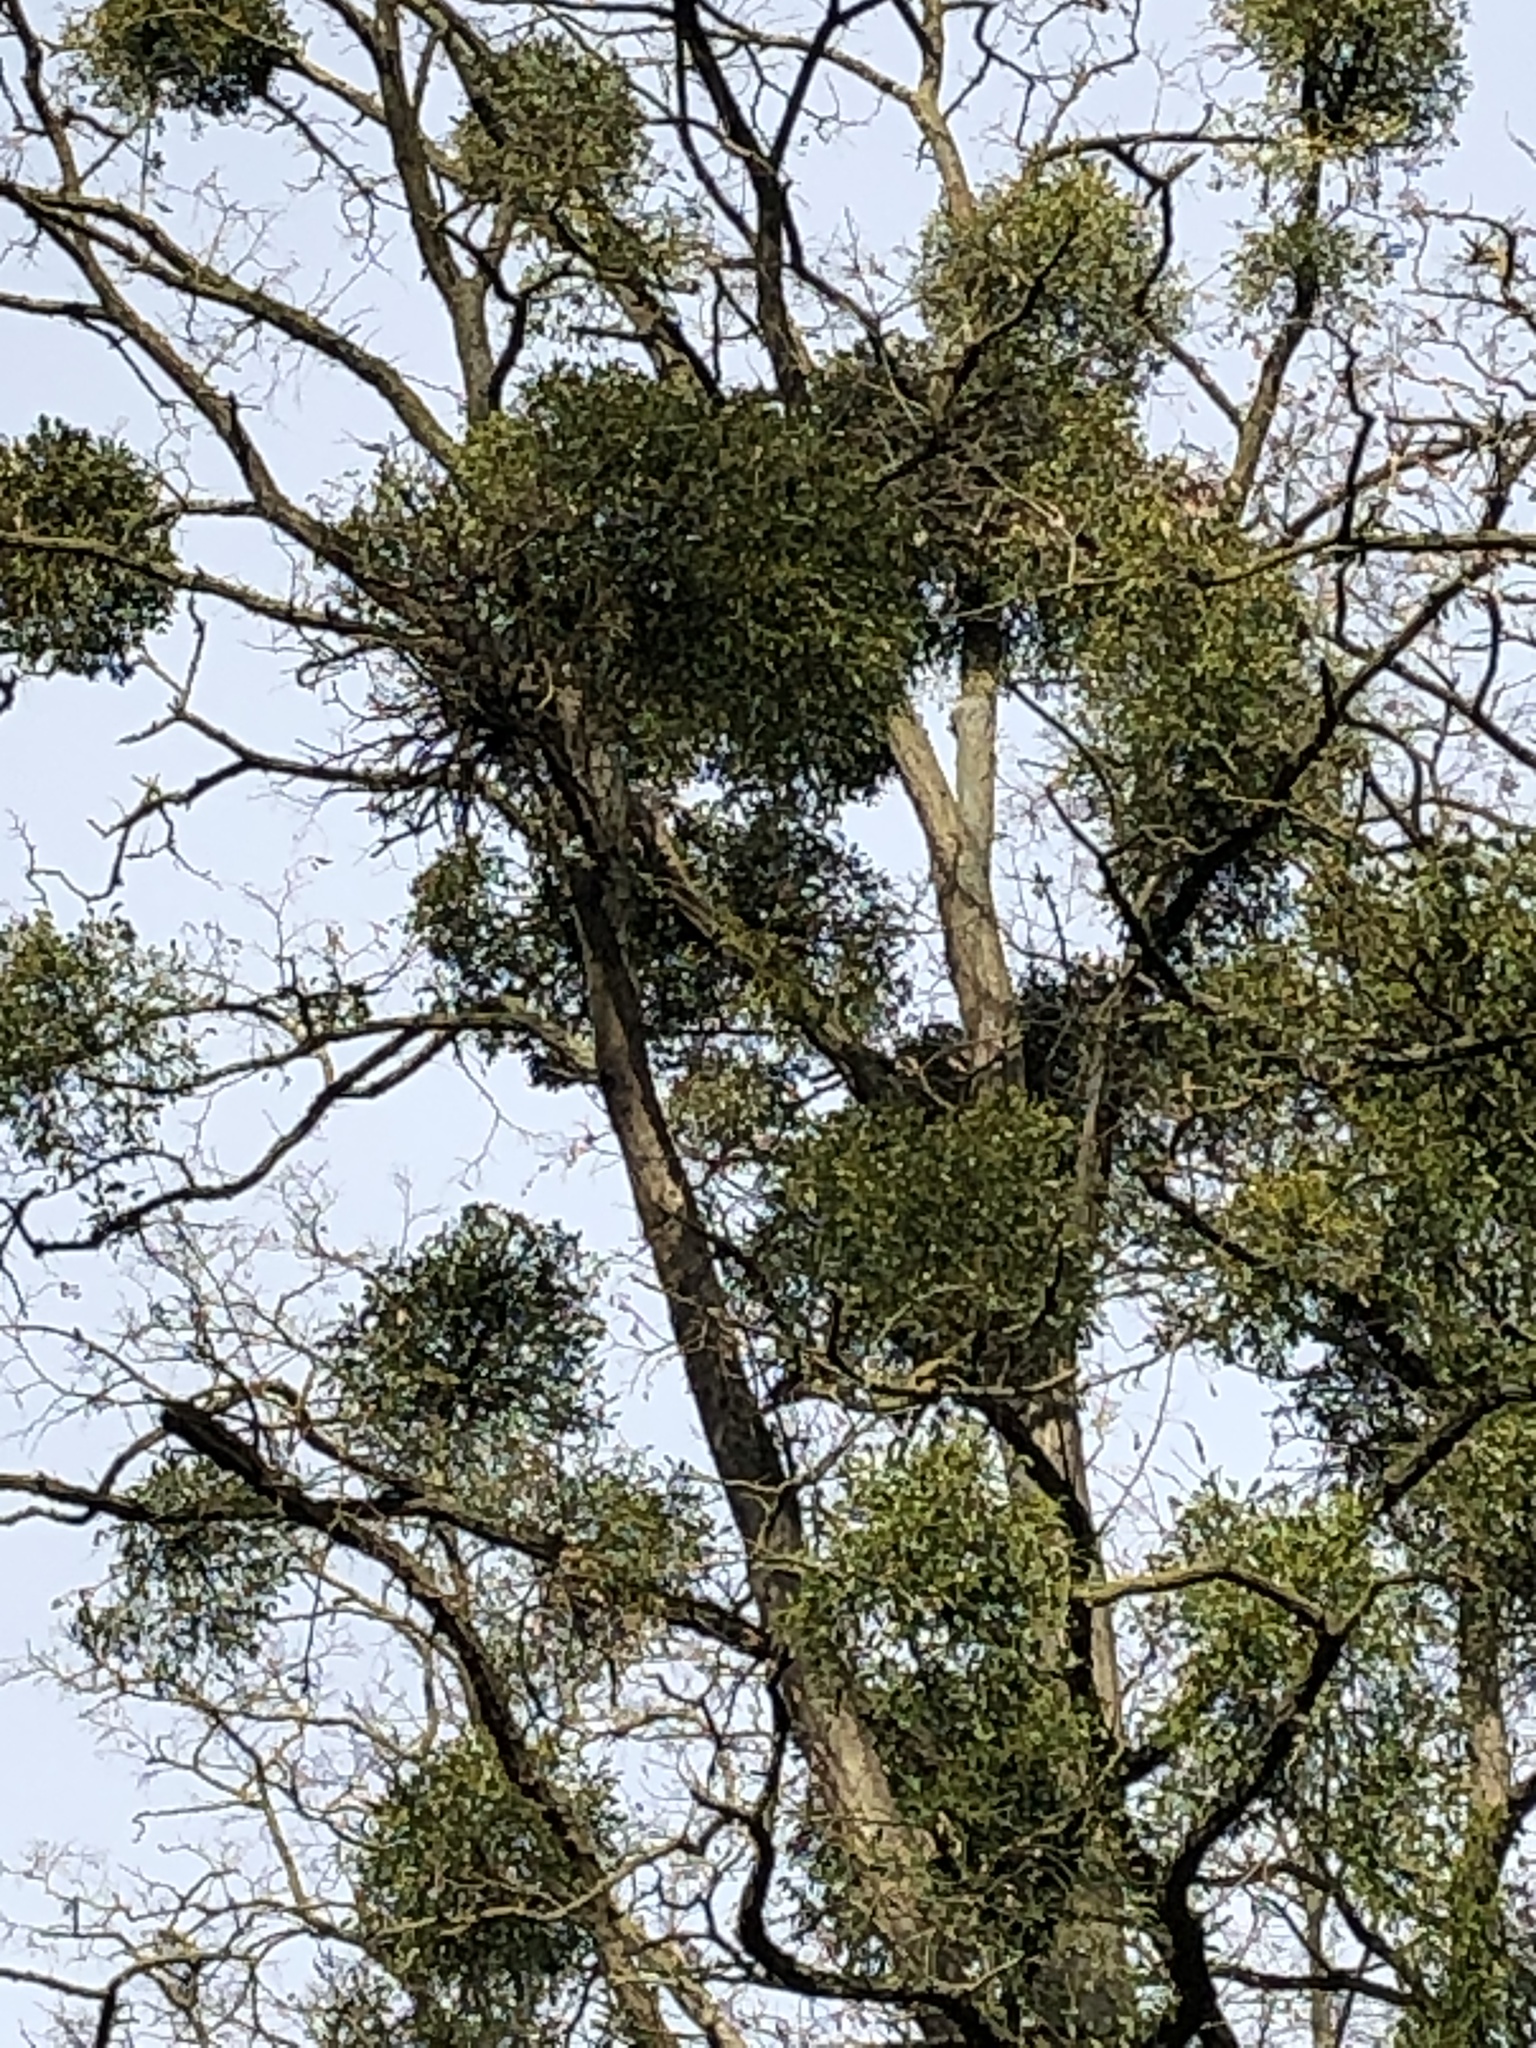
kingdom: Plantae
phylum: Tracheophyta
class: Magnoliopsida
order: Santalales
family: Viscaceae
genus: Viscum
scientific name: Viscum album
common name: Mistletoe
